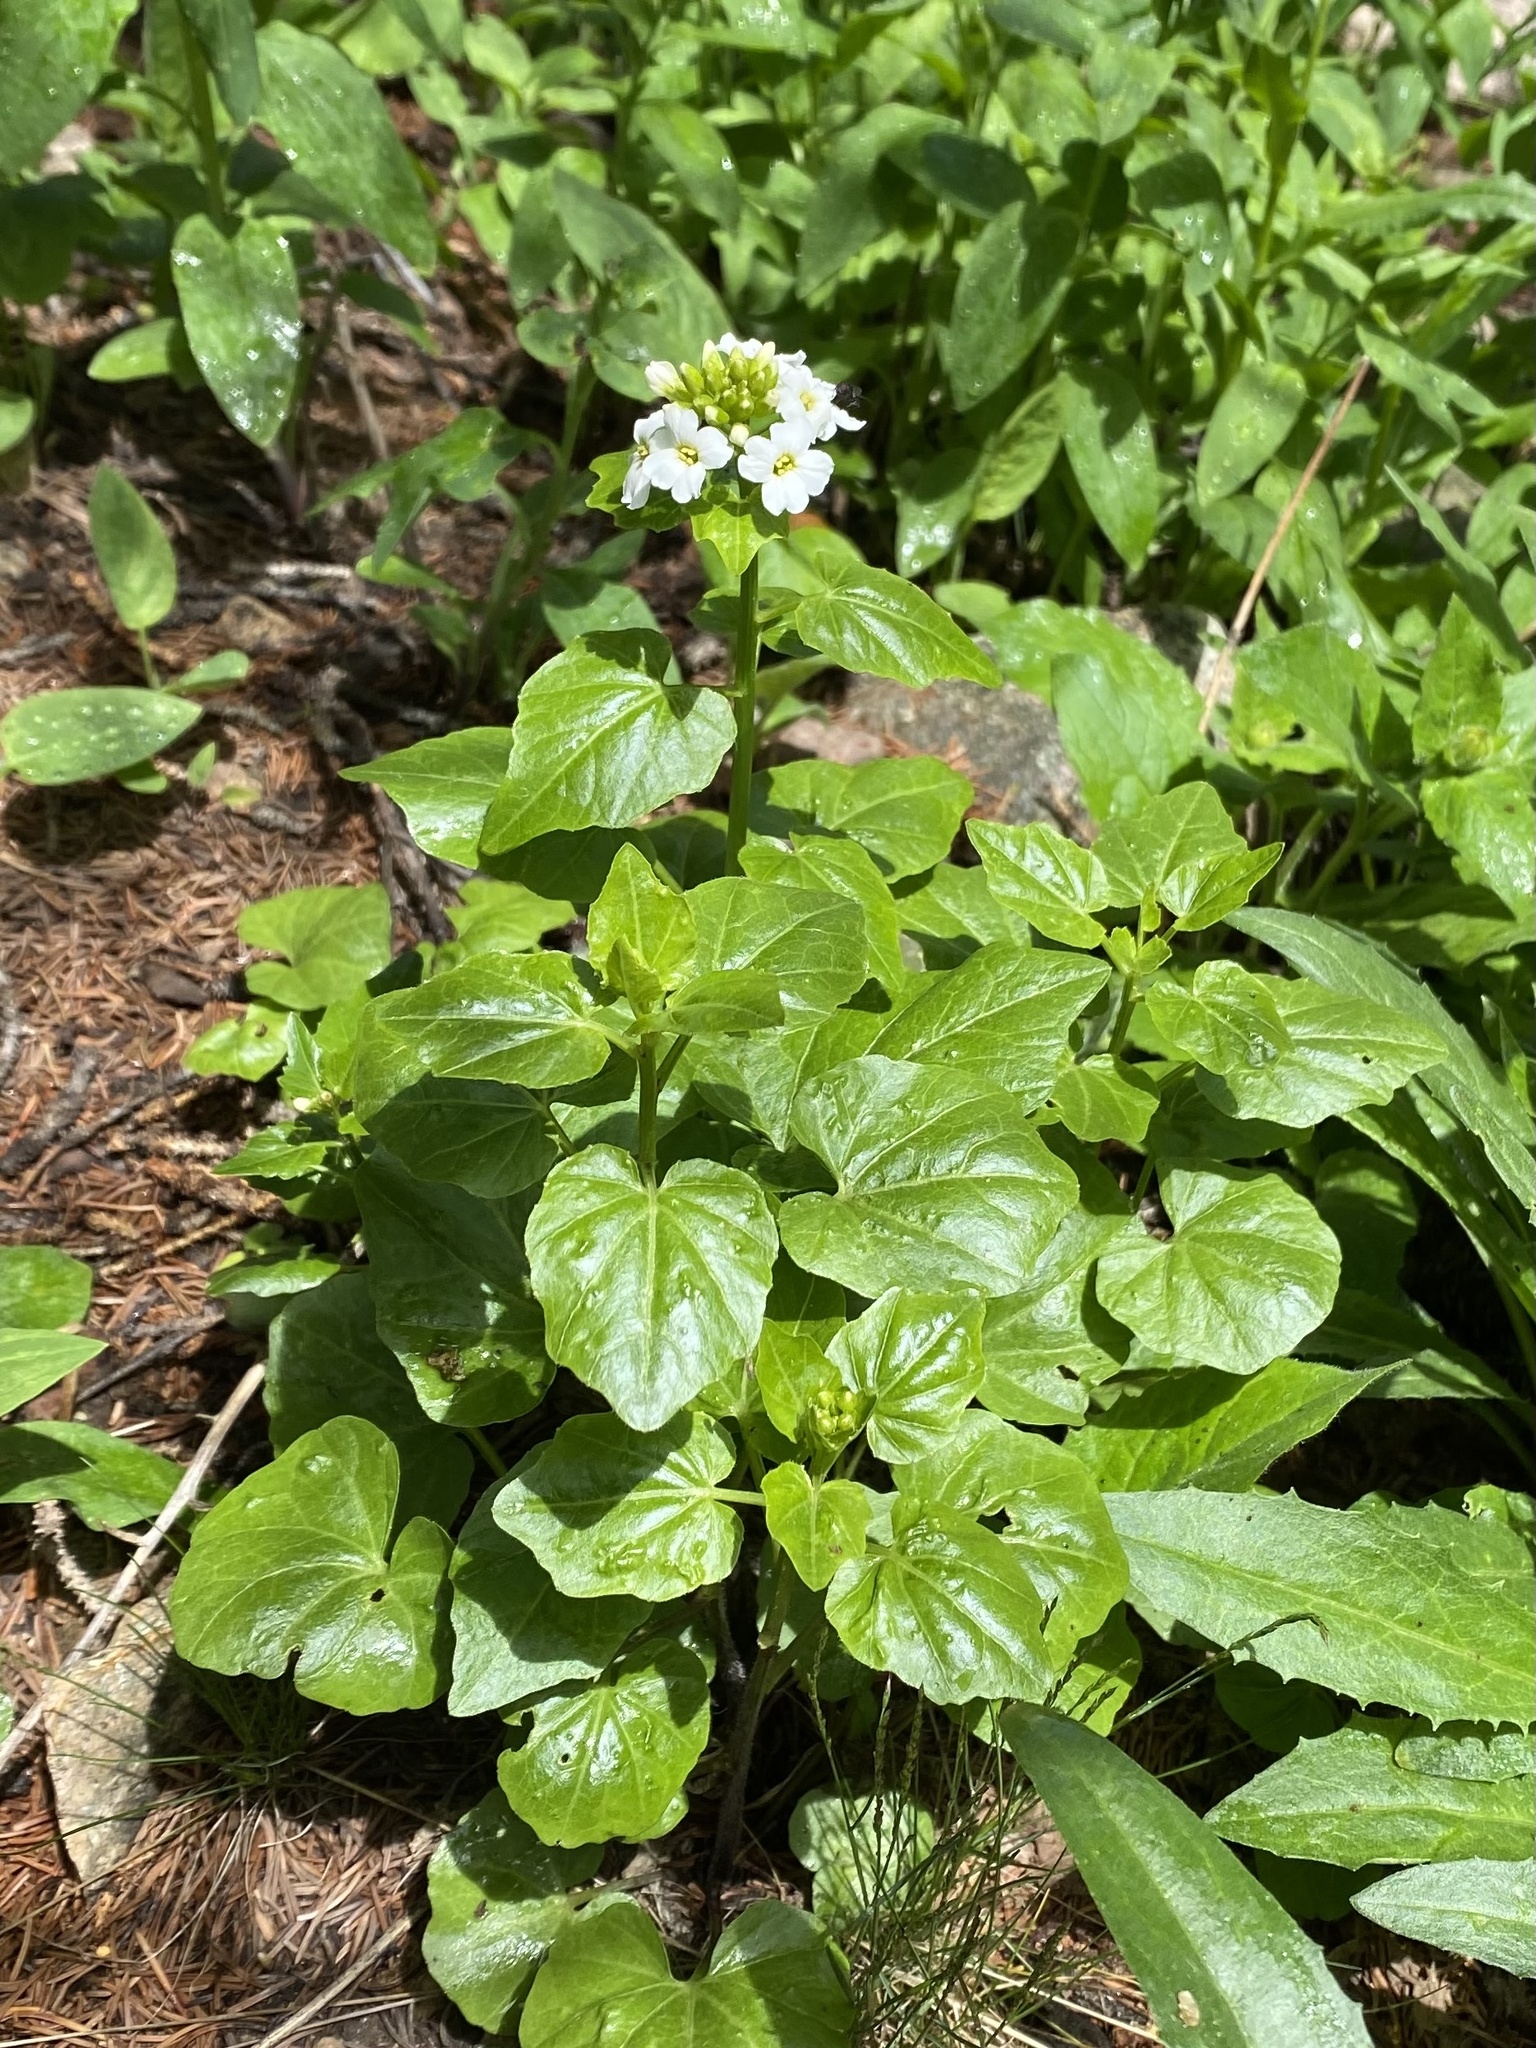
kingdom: Plantae
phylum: Tracheophyta
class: Magnoliopsida
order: Brassicales
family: Brassicaceae
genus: Cardamine
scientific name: Cardamine cordifolia
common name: Heart-leaf bittercress
